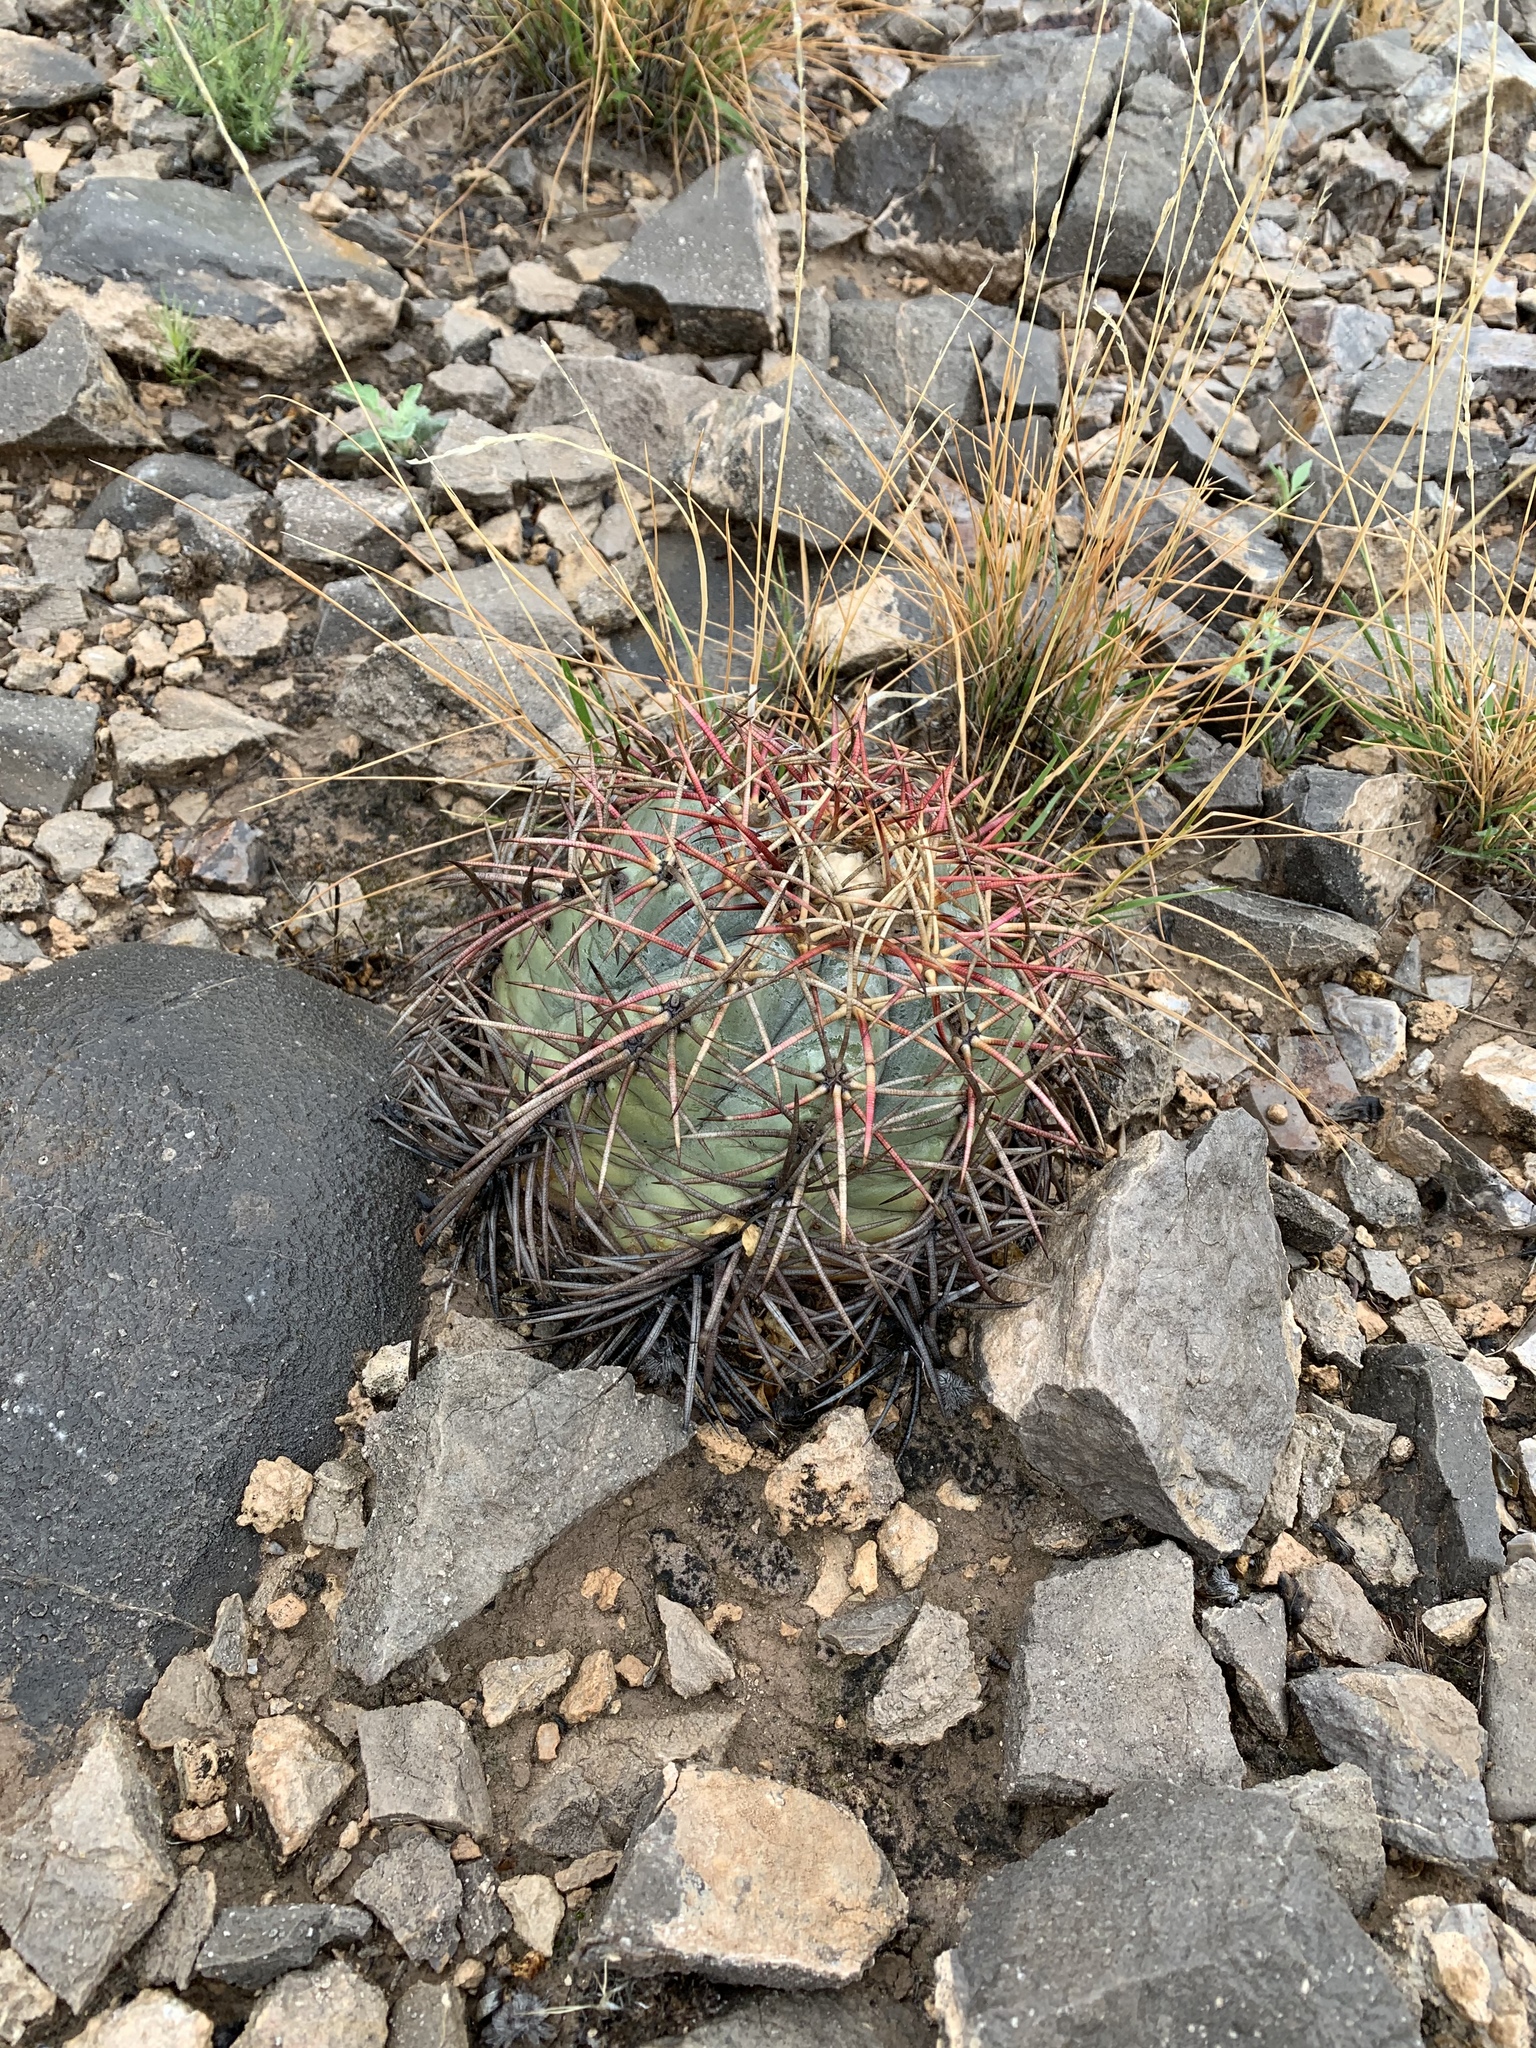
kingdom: Plantae
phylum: Tracheophyta
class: Magnoliopsida
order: Caryophyllales
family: Cactaceae
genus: Echinocactus
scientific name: Echinocactus horizonthalonius
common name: Devilshead
